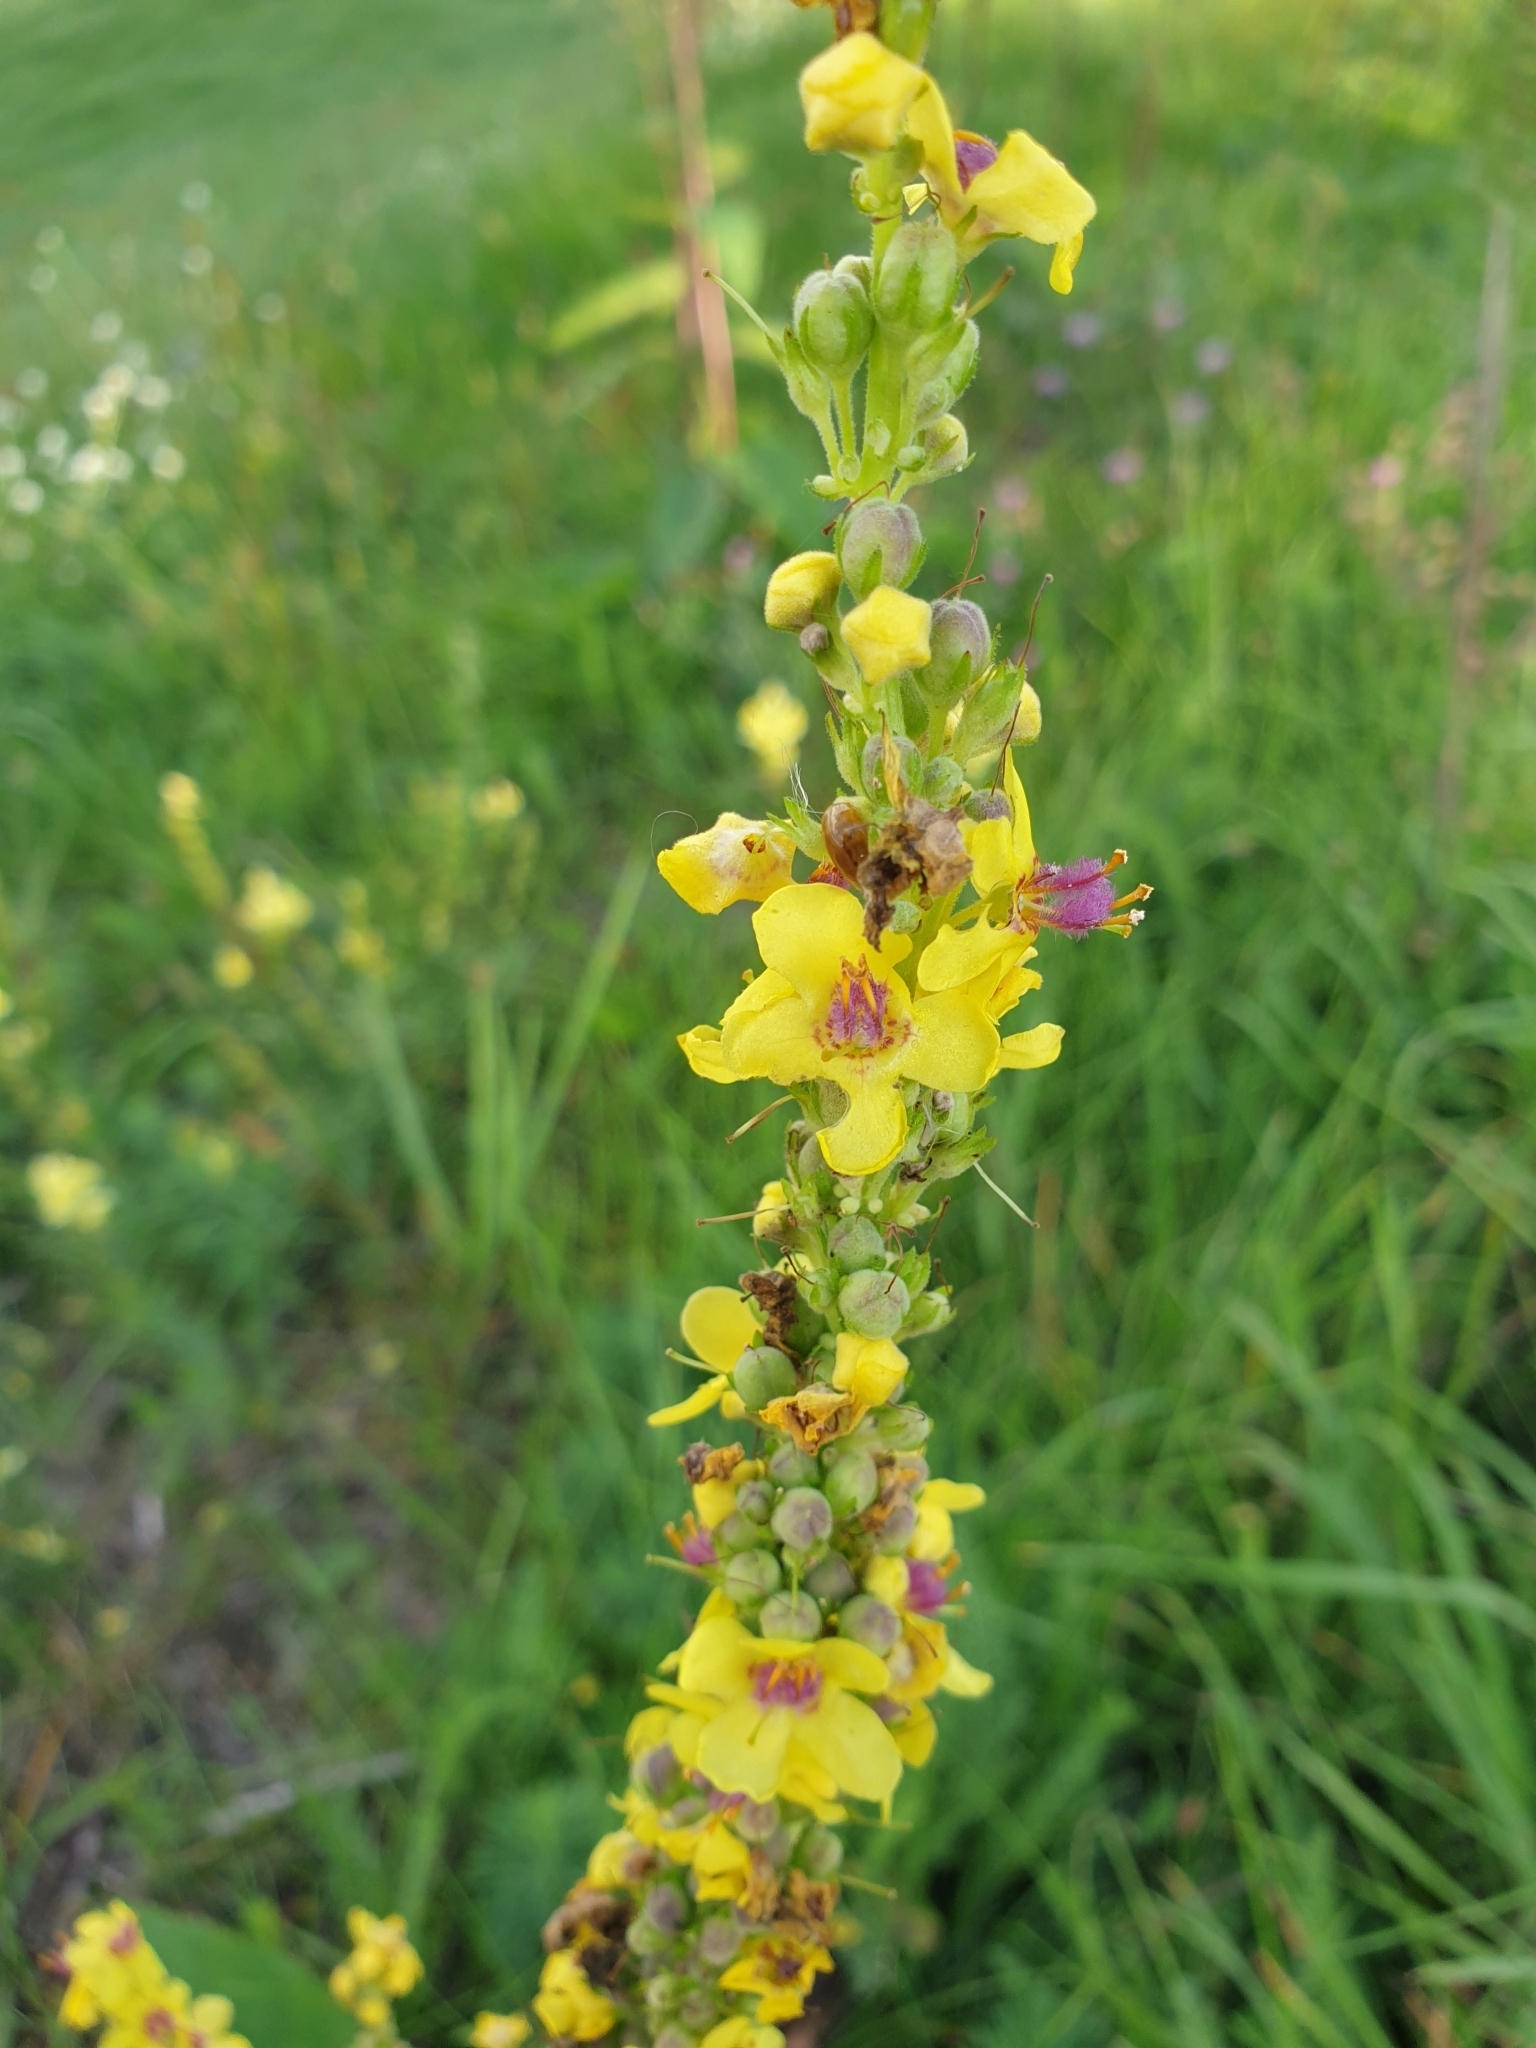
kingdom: Plantae
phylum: Tracheophyta
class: Magnoliopsida
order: Lamiales
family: Scrophulariaceae
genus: Verbascum
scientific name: Verbascum nigrum
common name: Dark mullein
